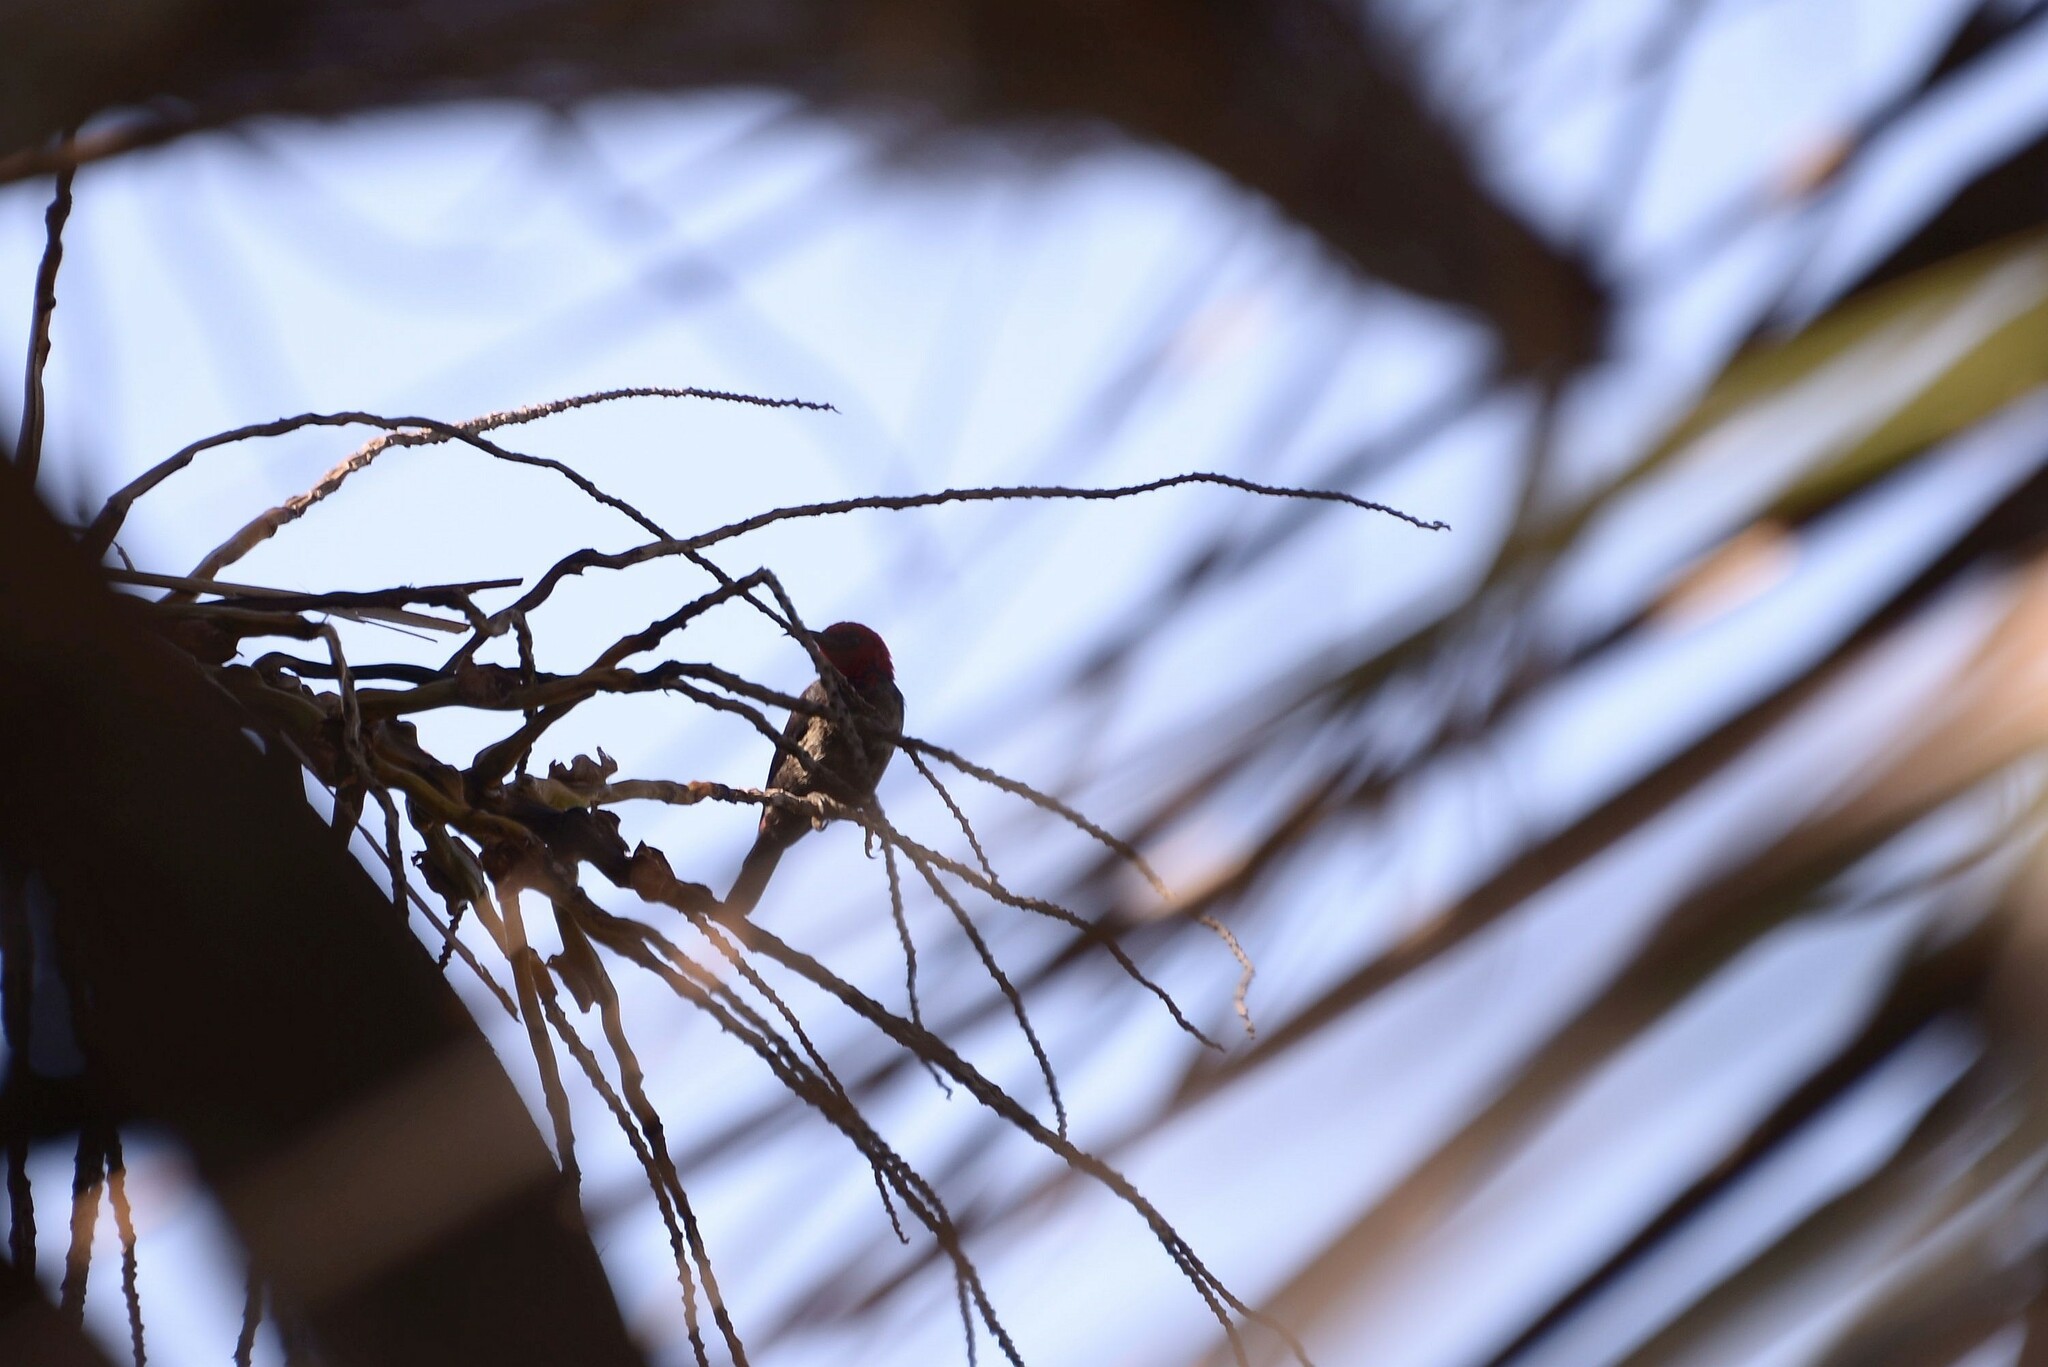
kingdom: Animalia
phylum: Chordata
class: Aves
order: Passeriformes
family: Meliphagidae
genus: Myzomela
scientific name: Myzomela cardinalis
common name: Cardinal myzomela
